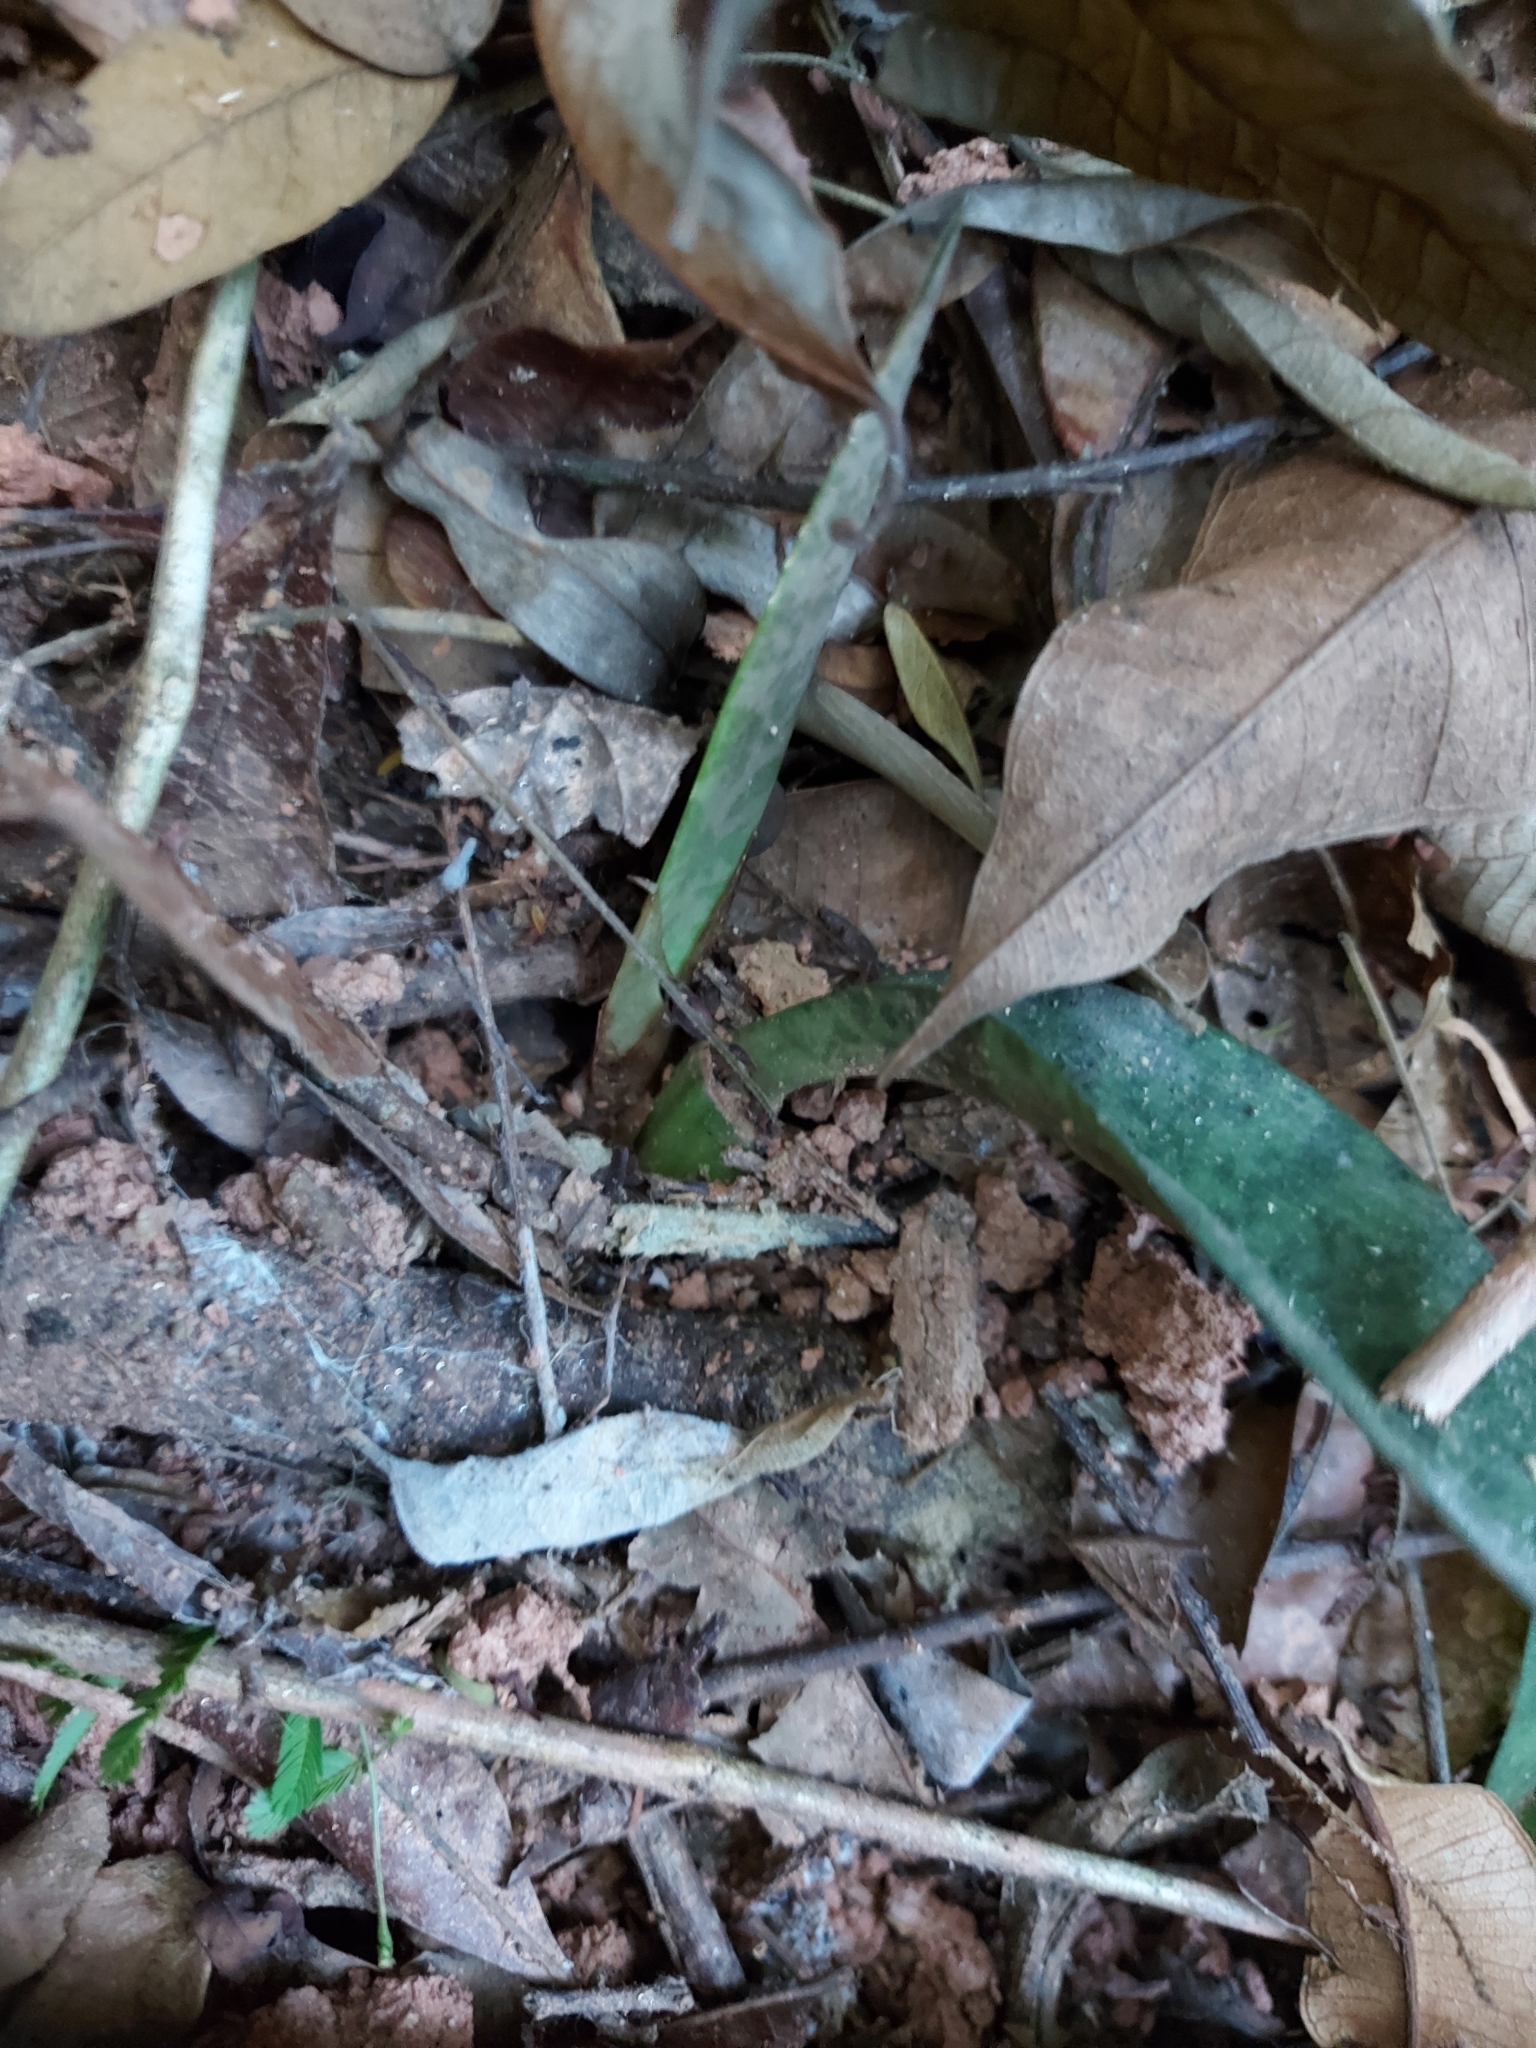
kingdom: Plantae
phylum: Tracheophyta
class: Liliopsida
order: Asparagales
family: Orchidaceae
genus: Eulophia
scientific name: Eulophia maculata
